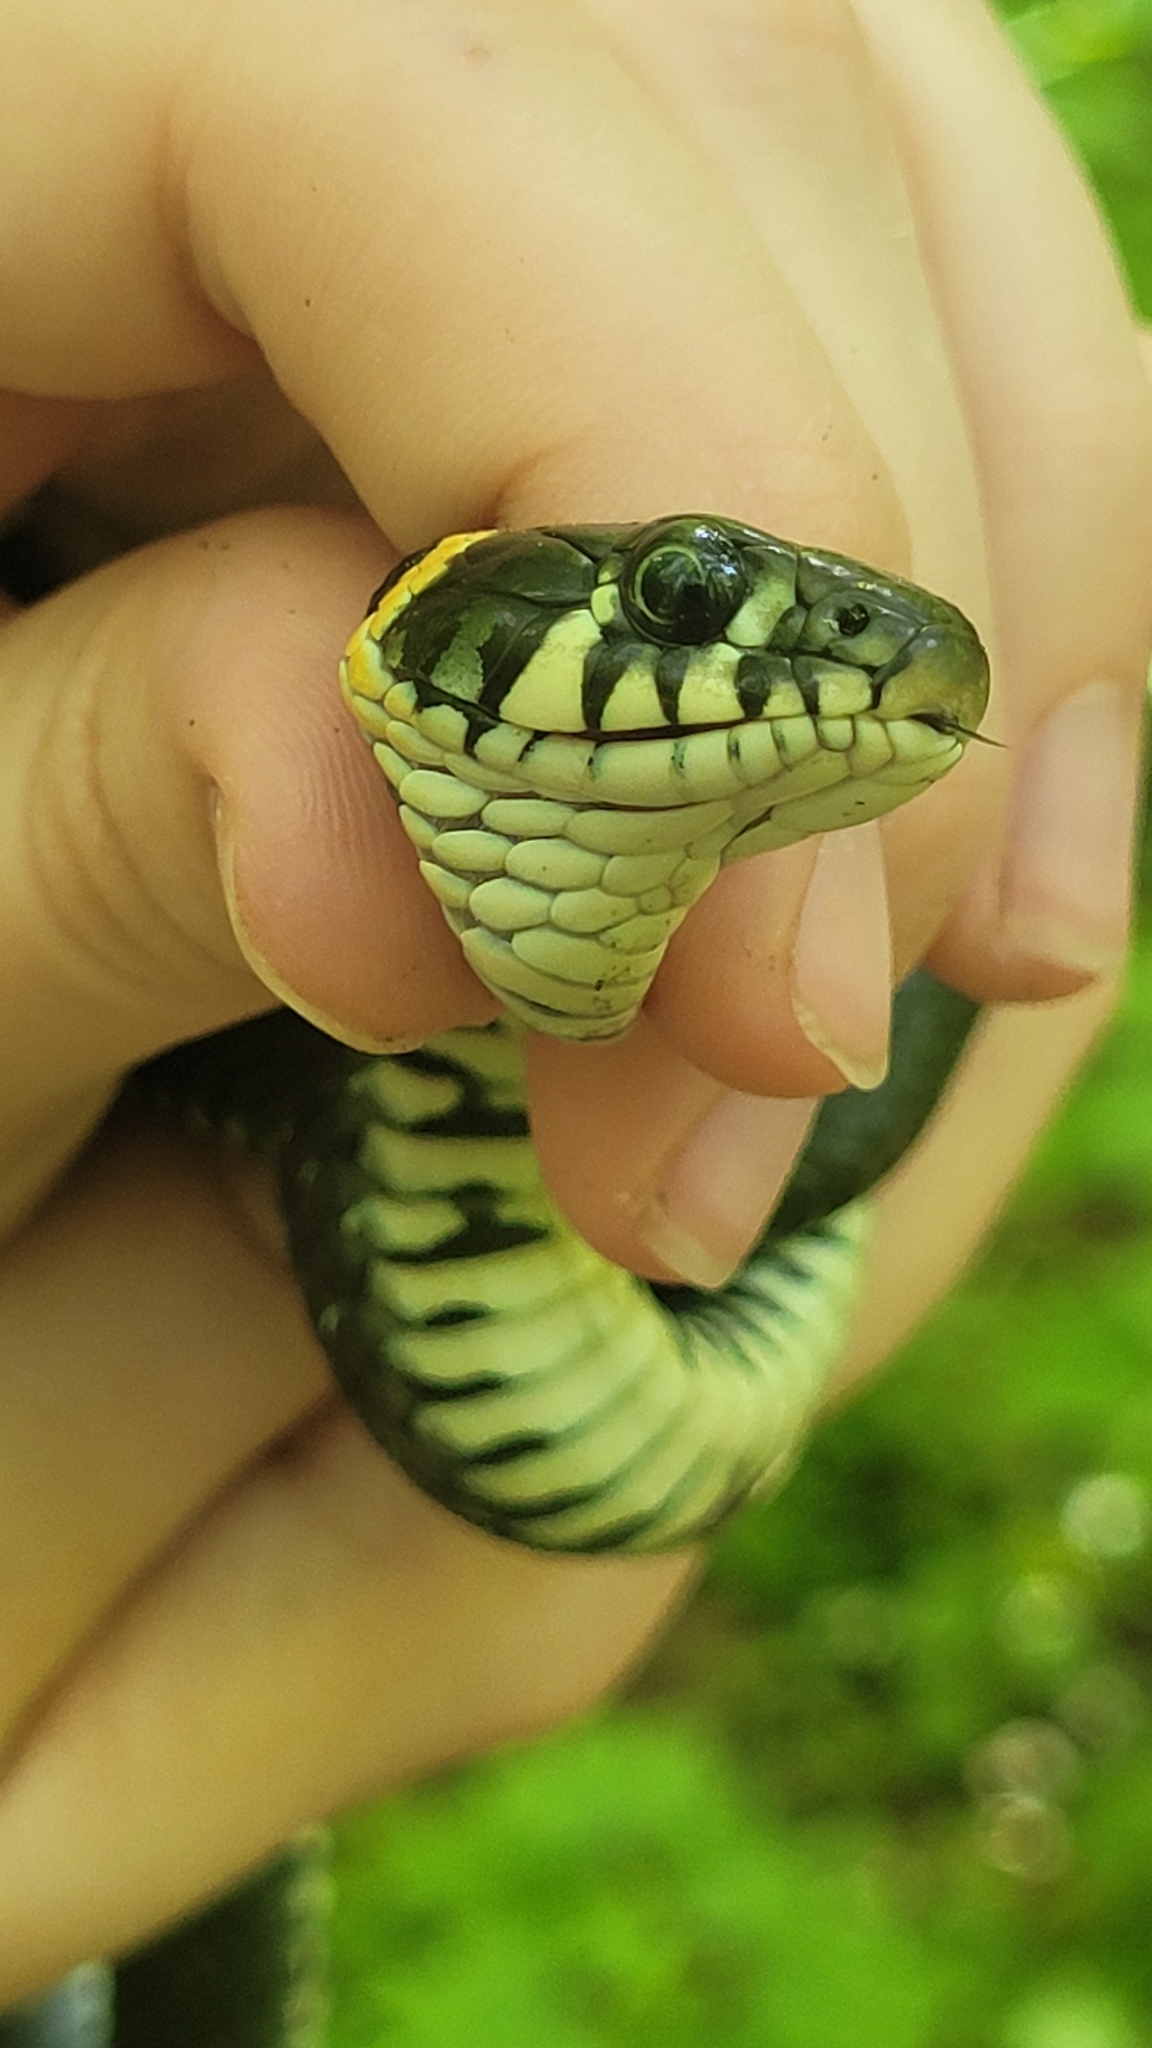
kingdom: Animalia
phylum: Chordata
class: Squamata
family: Colubridae
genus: Natrix
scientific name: Natrix natrix
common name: Grass snake
